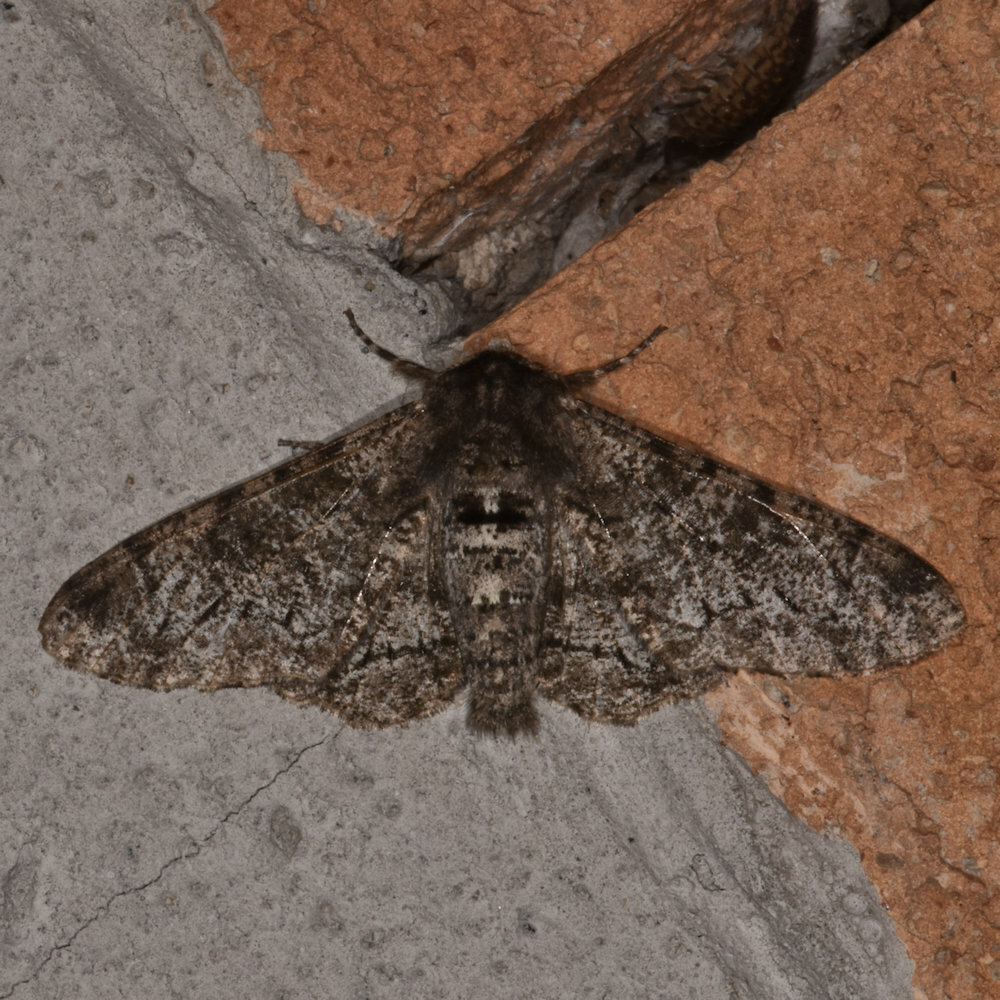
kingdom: Animalia
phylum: Arthropoda
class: Insecta
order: Lepidoptera
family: Geometridae
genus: Biston
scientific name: Biston betularia
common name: Peppered moth
